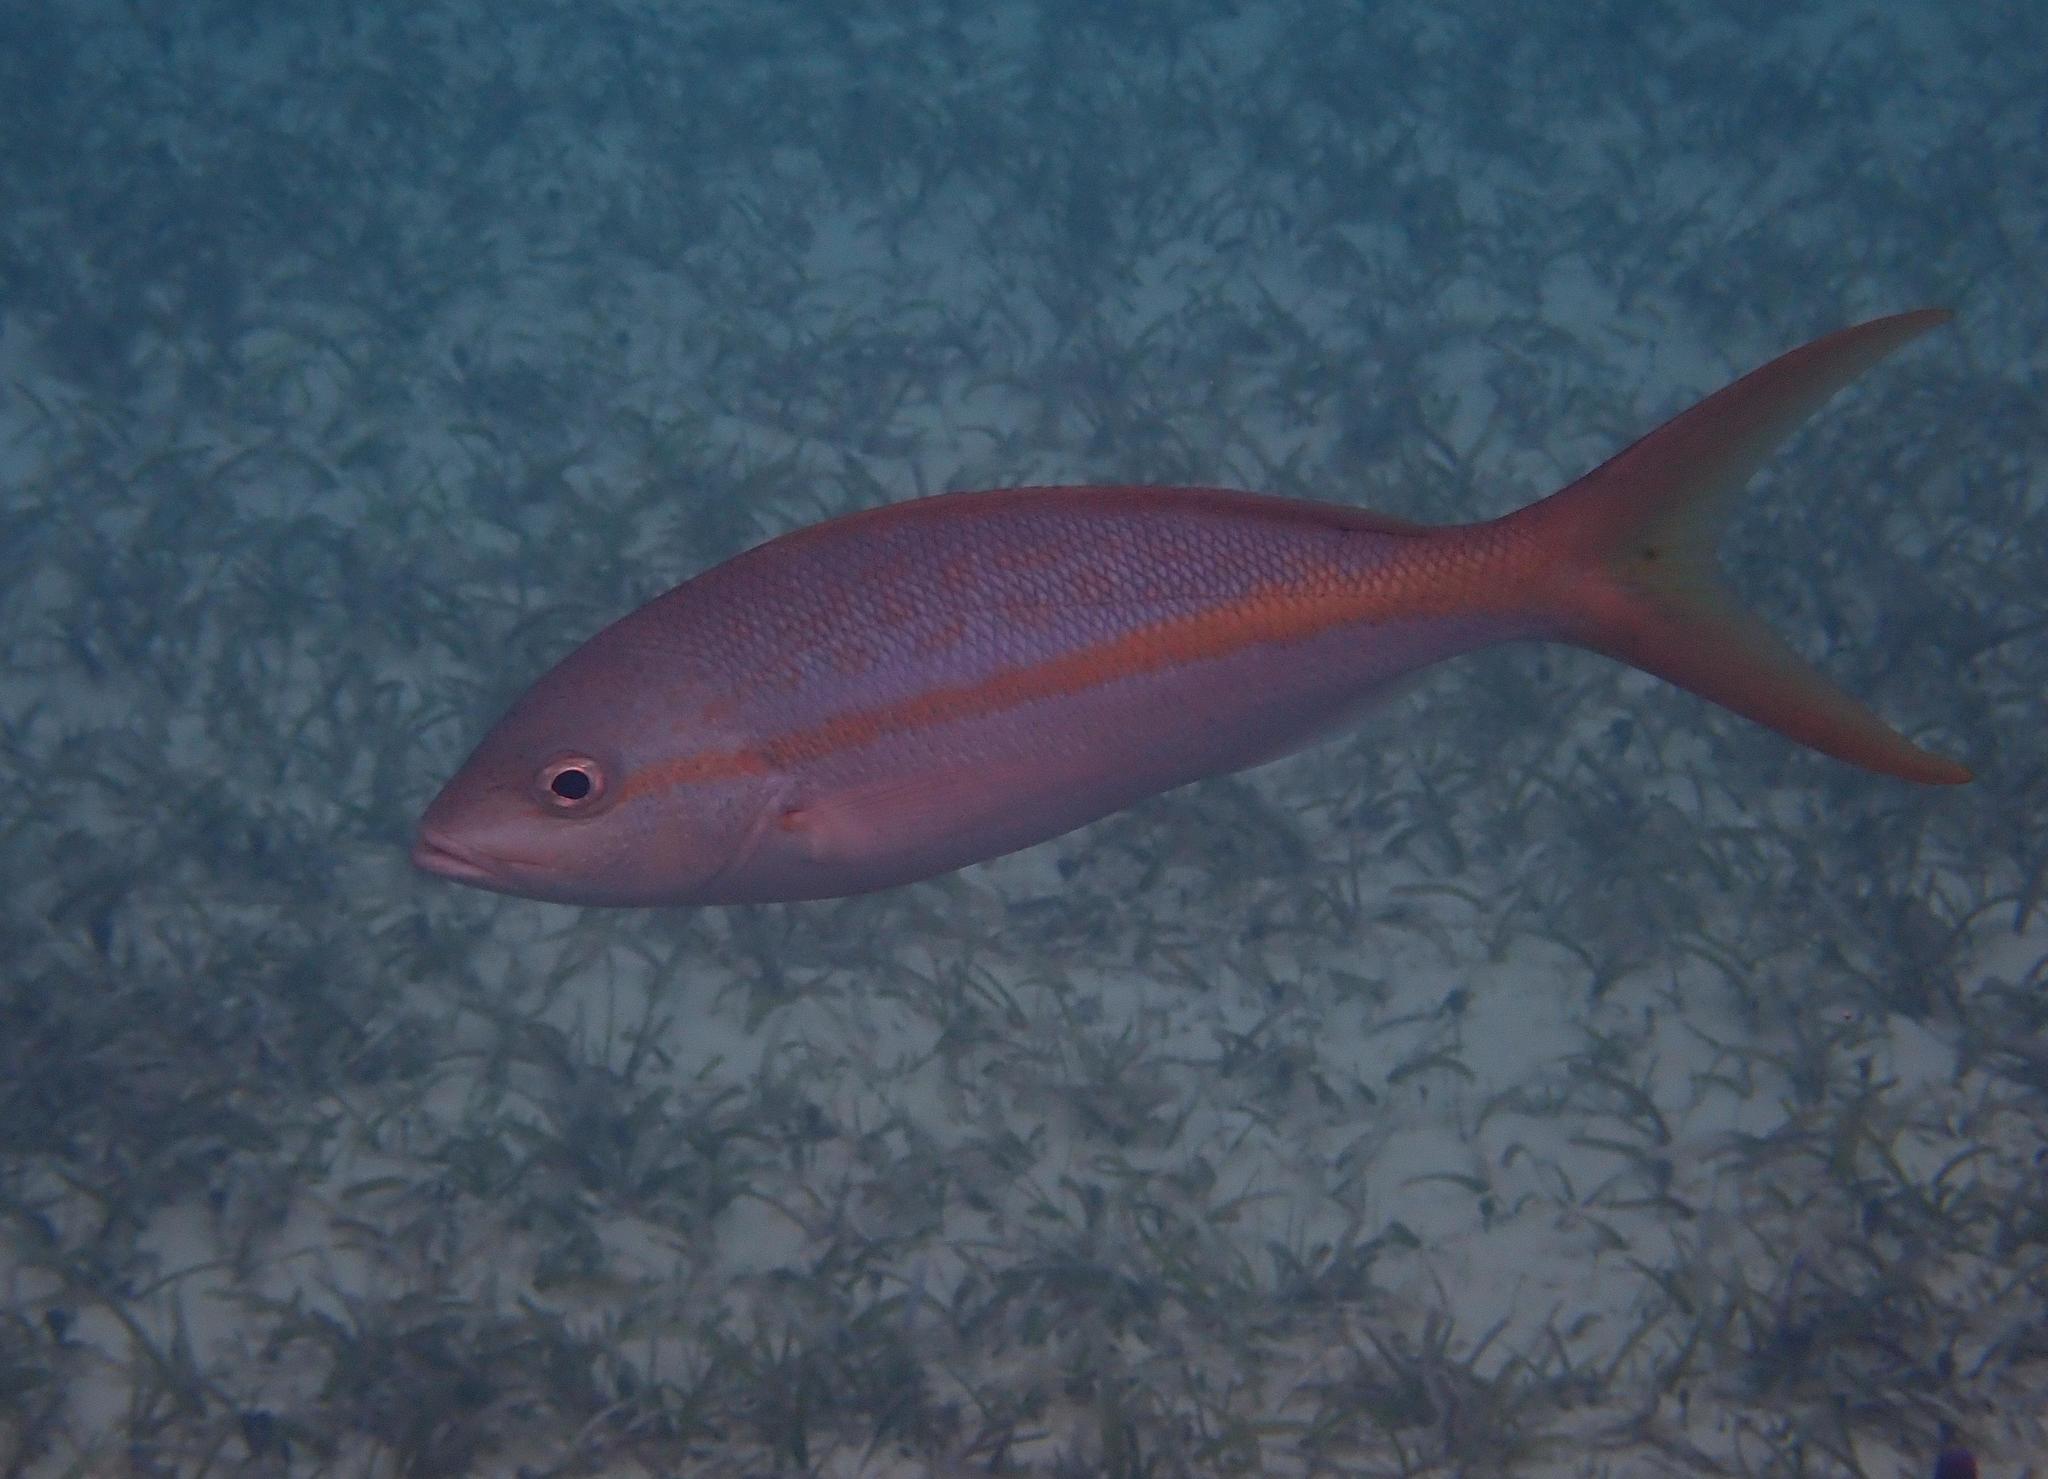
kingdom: Animalia
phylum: Chordata
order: Perciformes
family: Lutjanidae
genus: Ocyurus
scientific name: Ocyurus chrysurus
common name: Yellowtail snapper
